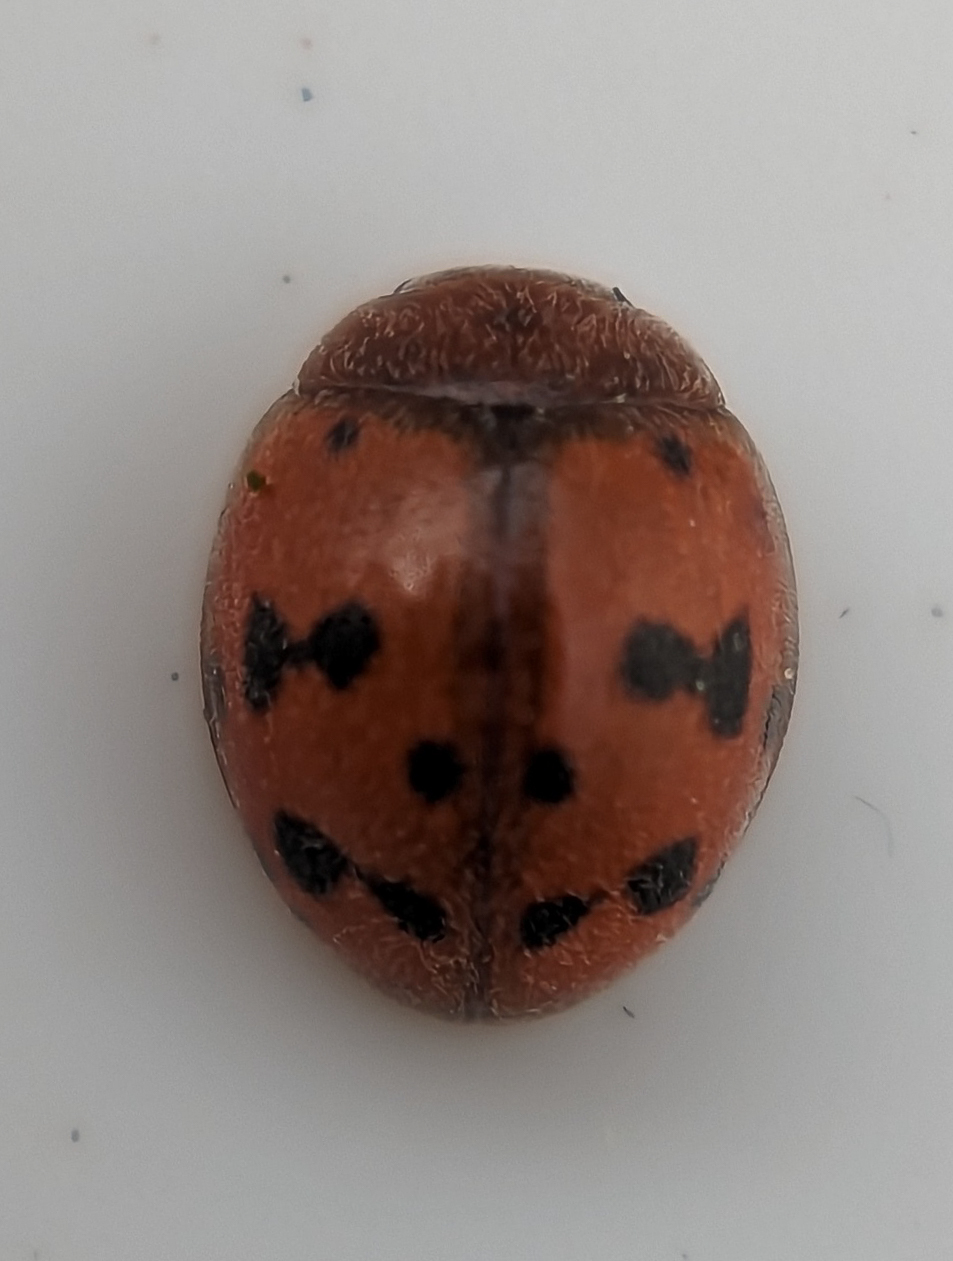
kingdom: Animalia
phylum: Arthropoda
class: Insecta
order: Coleoptera
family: Coccinellidae
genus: Subcoccinella
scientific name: Subcoccinella vigintiquatuorpunctata
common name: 24-spot ladybird
